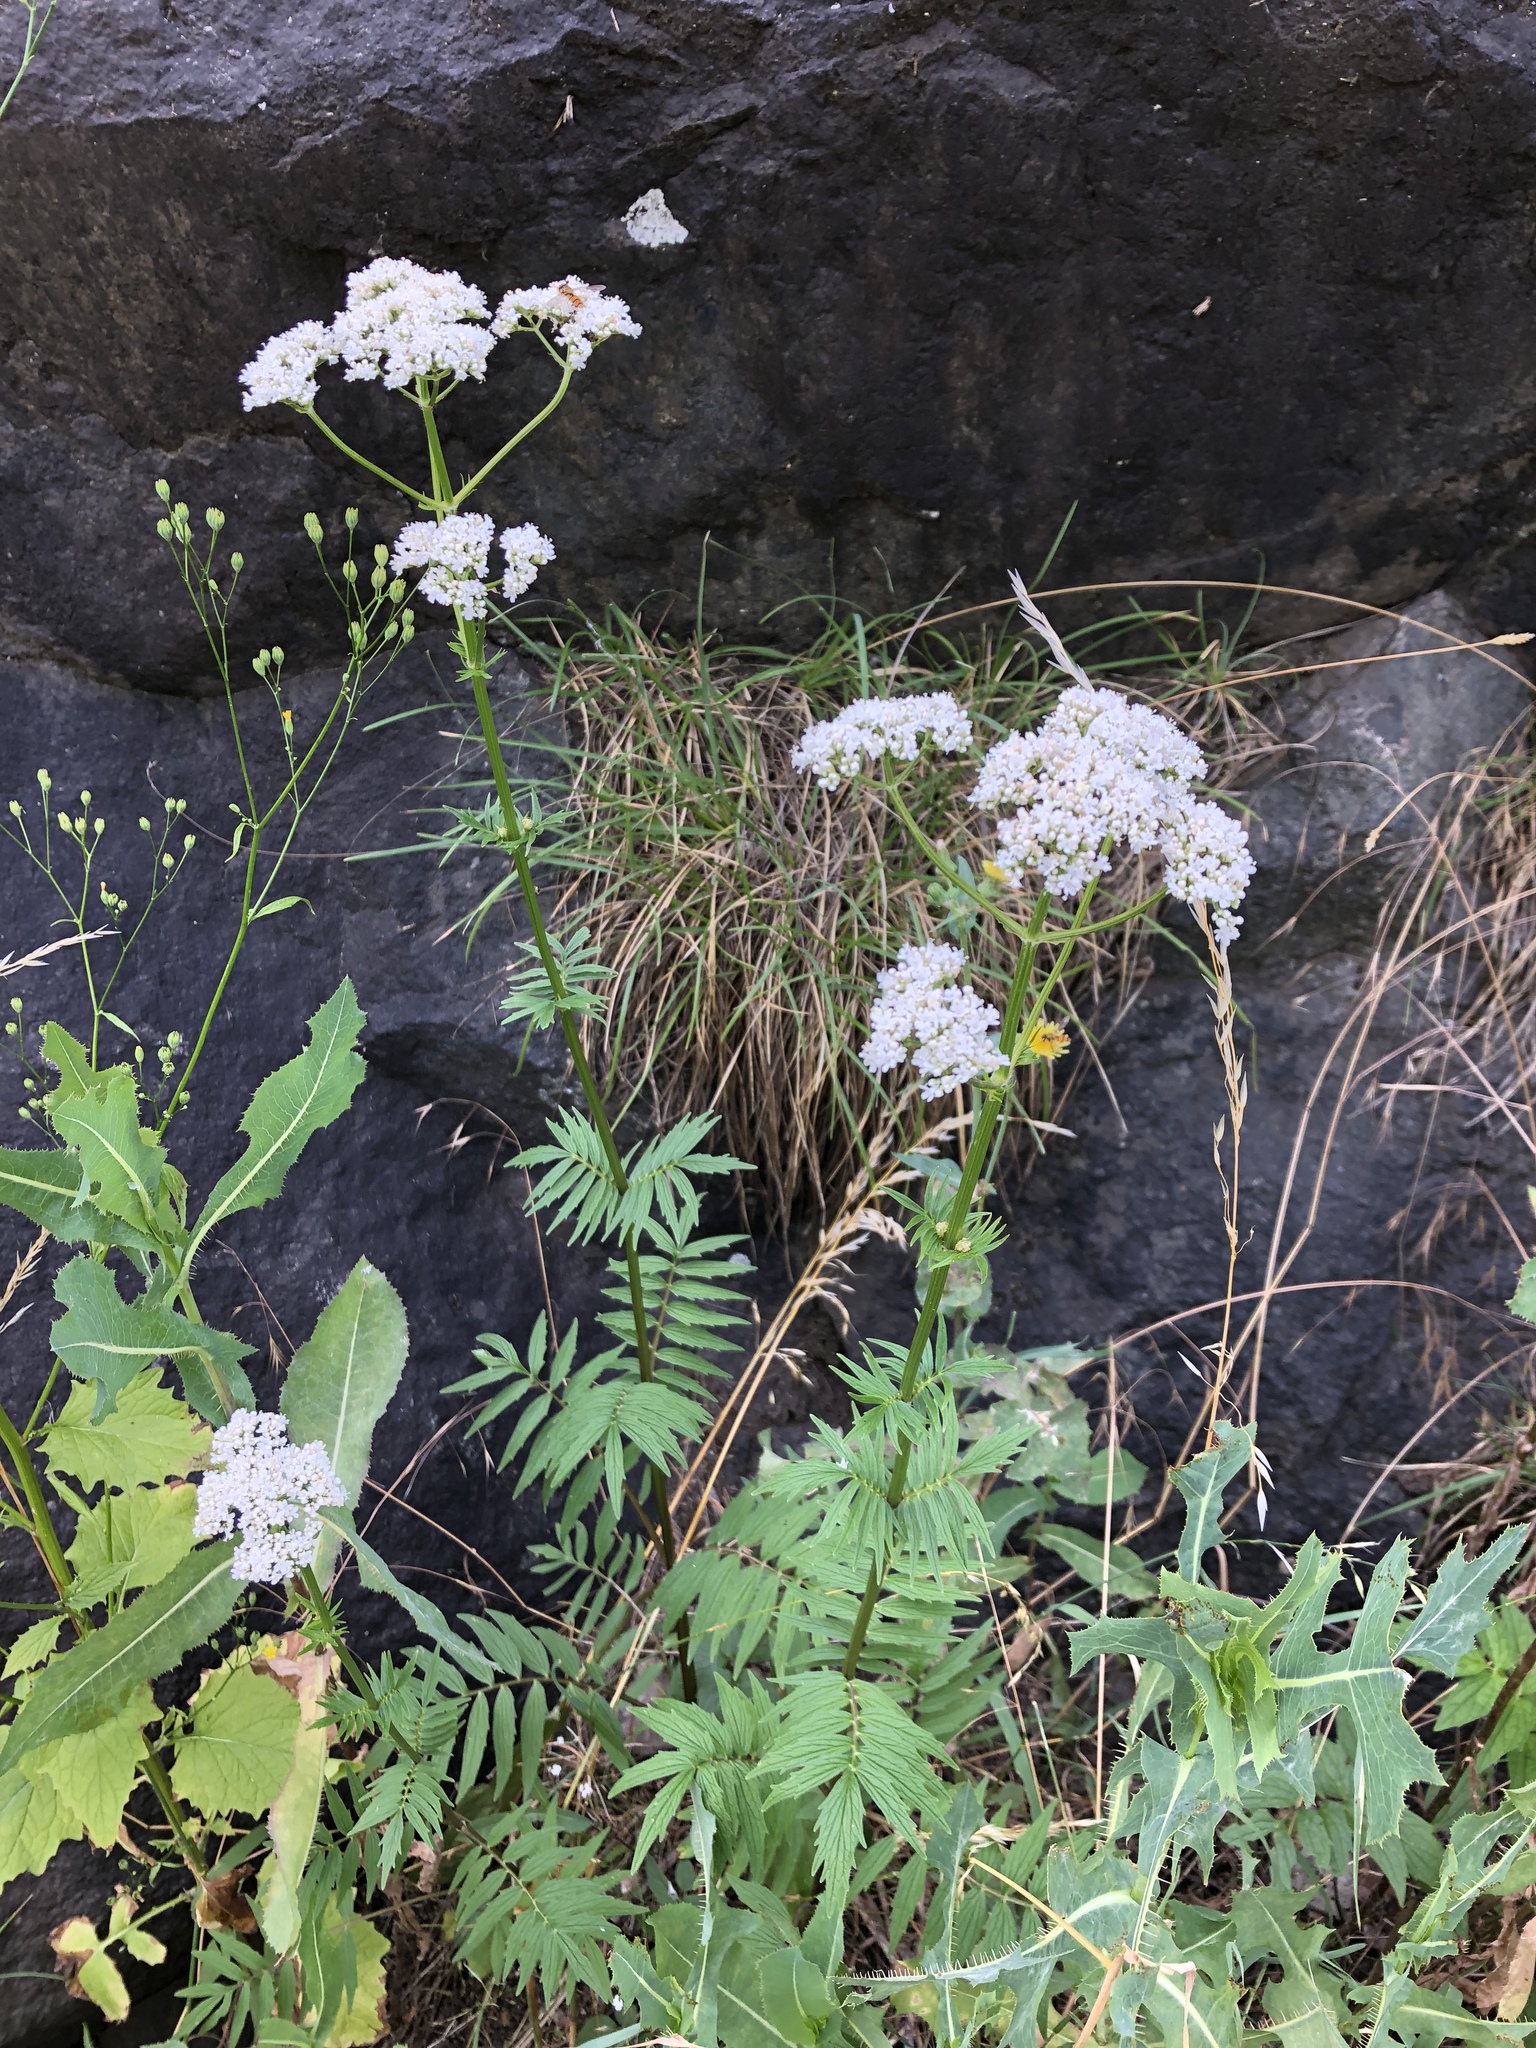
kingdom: Plantae
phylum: Tracheophyta
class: Magnoliopsida
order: Dipsacales
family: Caprifoliaceae
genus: Valeriana
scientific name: Valeriana officinalis
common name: Common valerian
